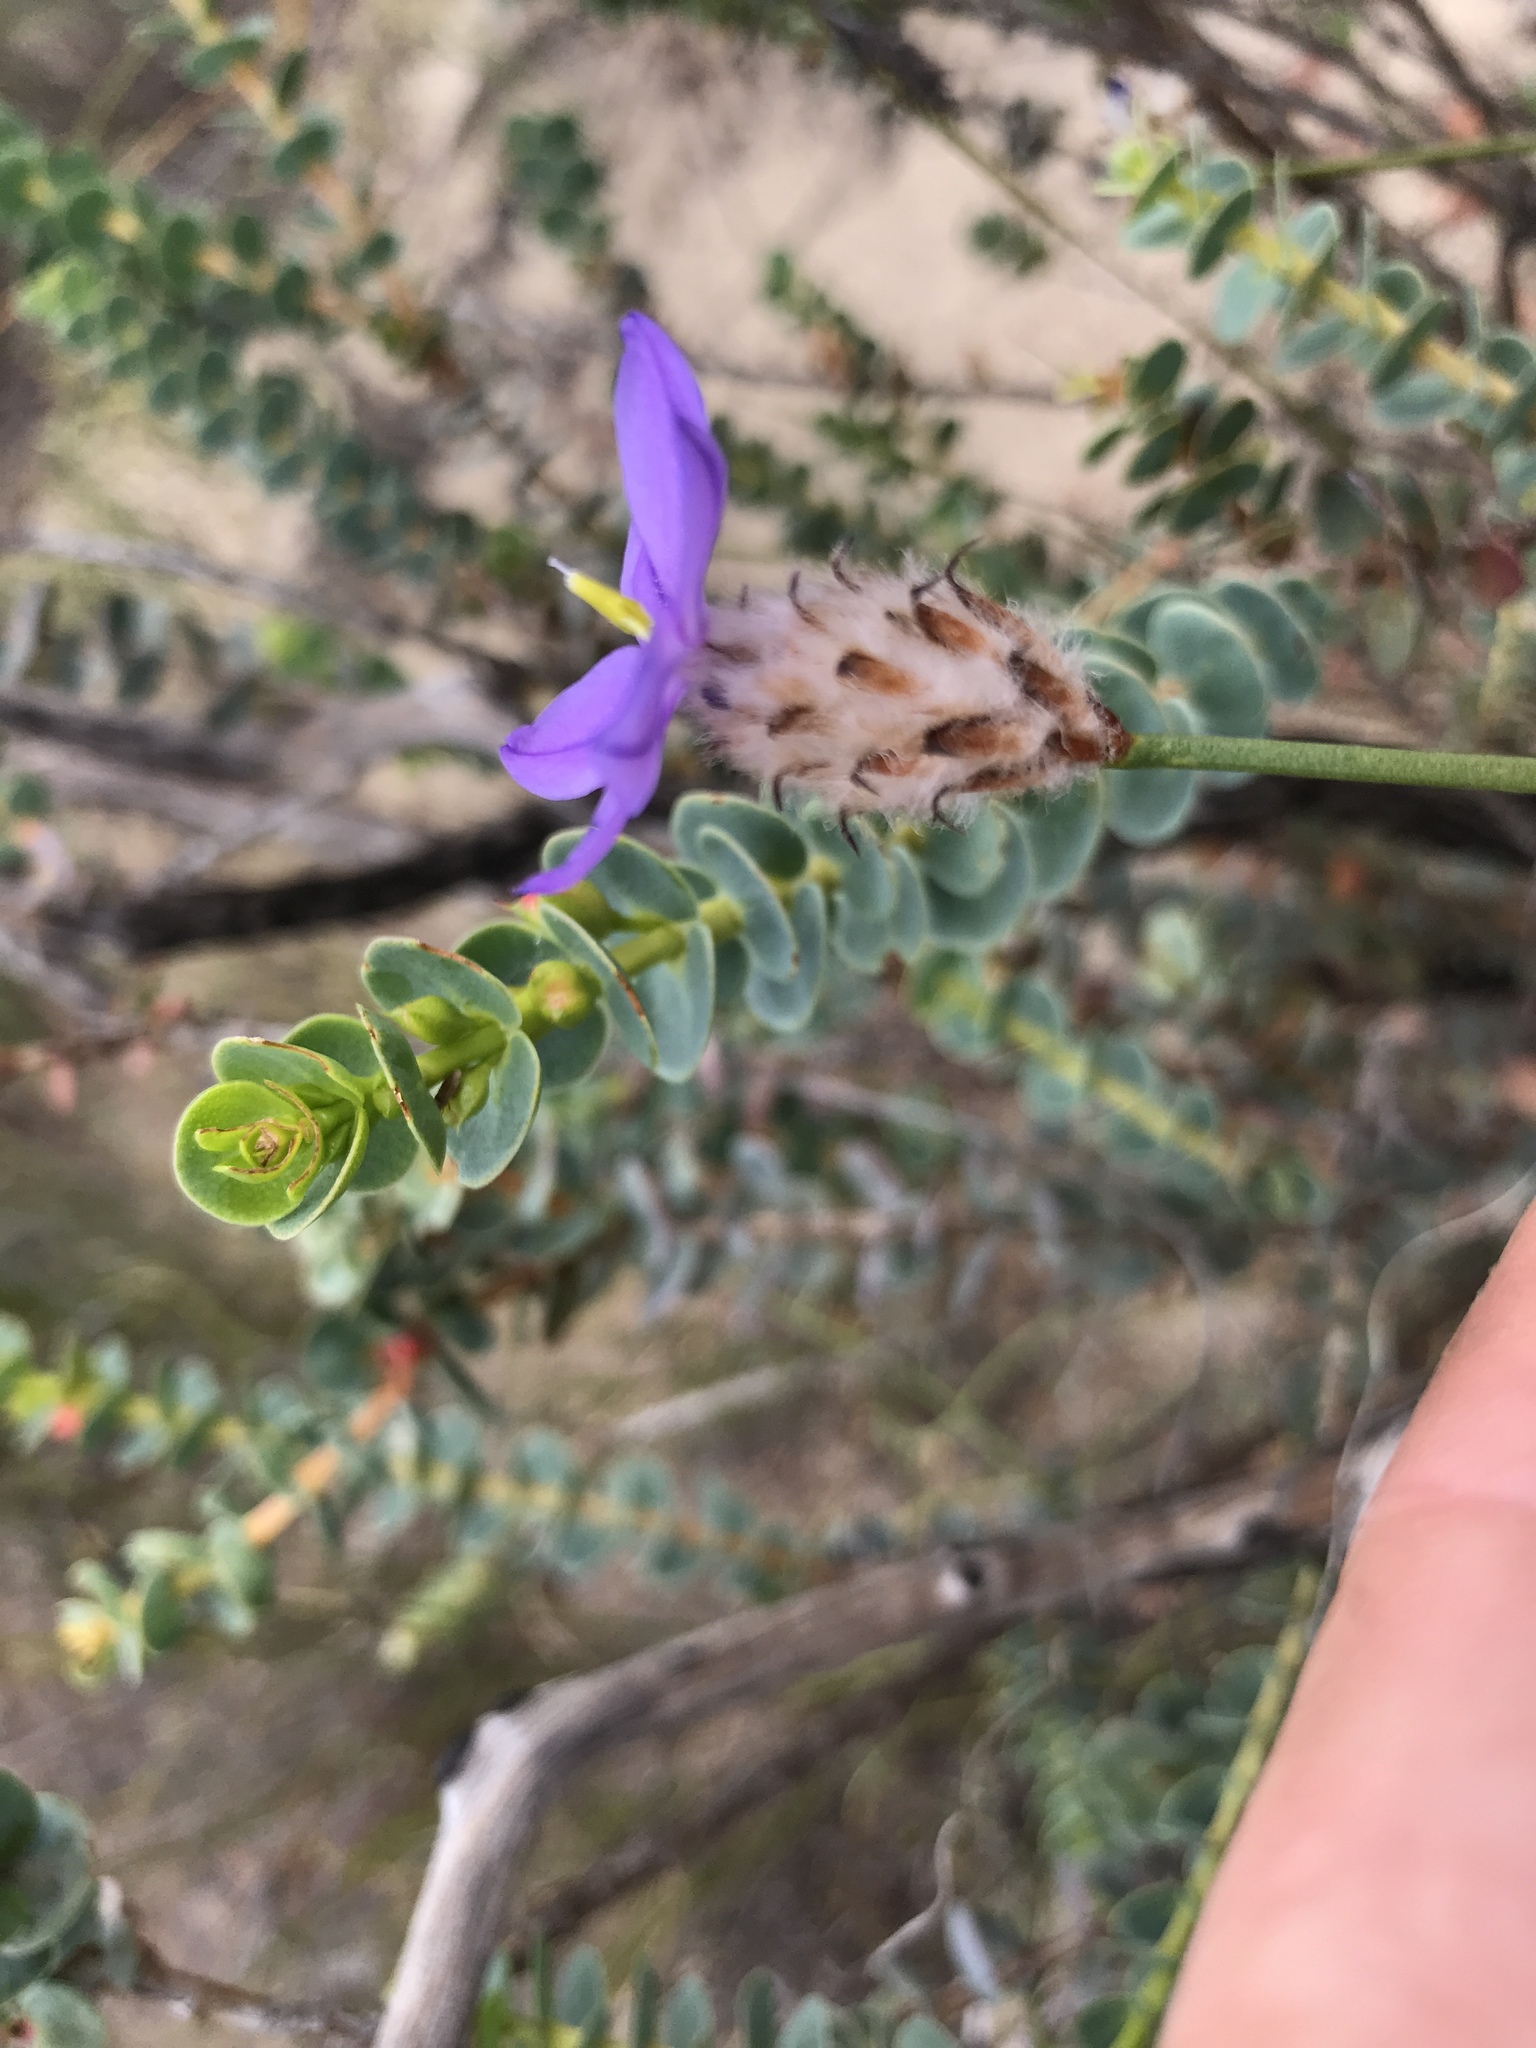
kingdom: Plantae
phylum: Tracheophyta
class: Liliopsida
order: Asparagales
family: Asphodelaceae
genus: Arnocrinum
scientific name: Arnocrinum preisii
